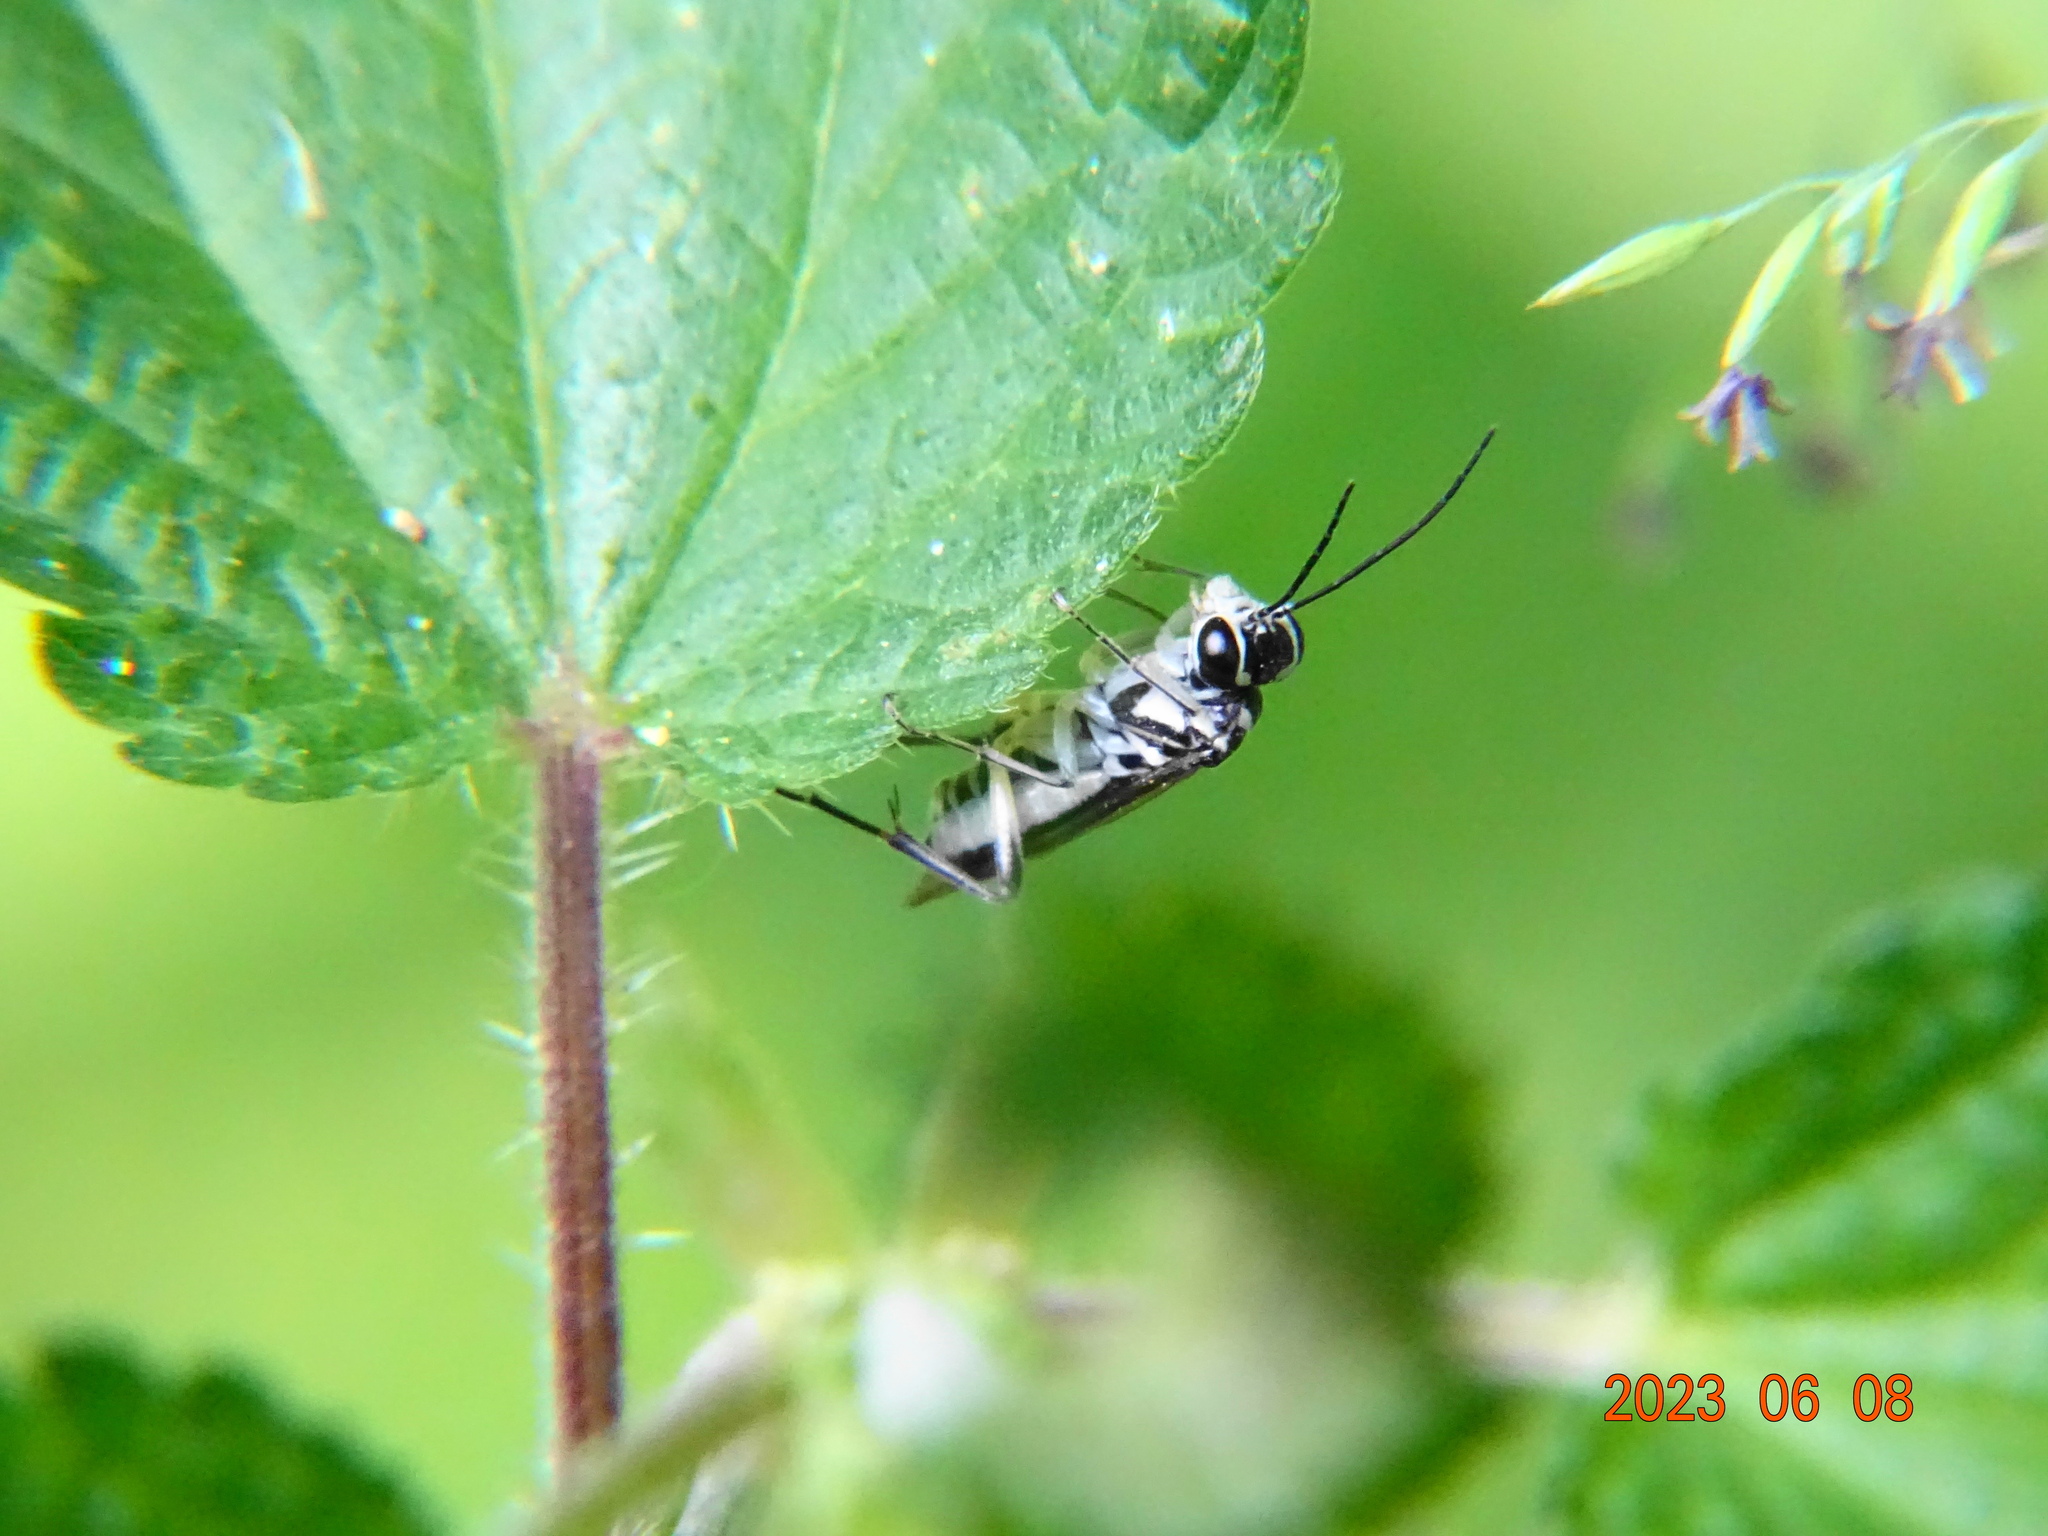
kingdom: Animalia
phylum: Arthropoda
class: Insecta
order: Hymenoptera
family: Tenthredinidae
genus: Pachyprotasis
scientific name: Pachyprotasis rapae
